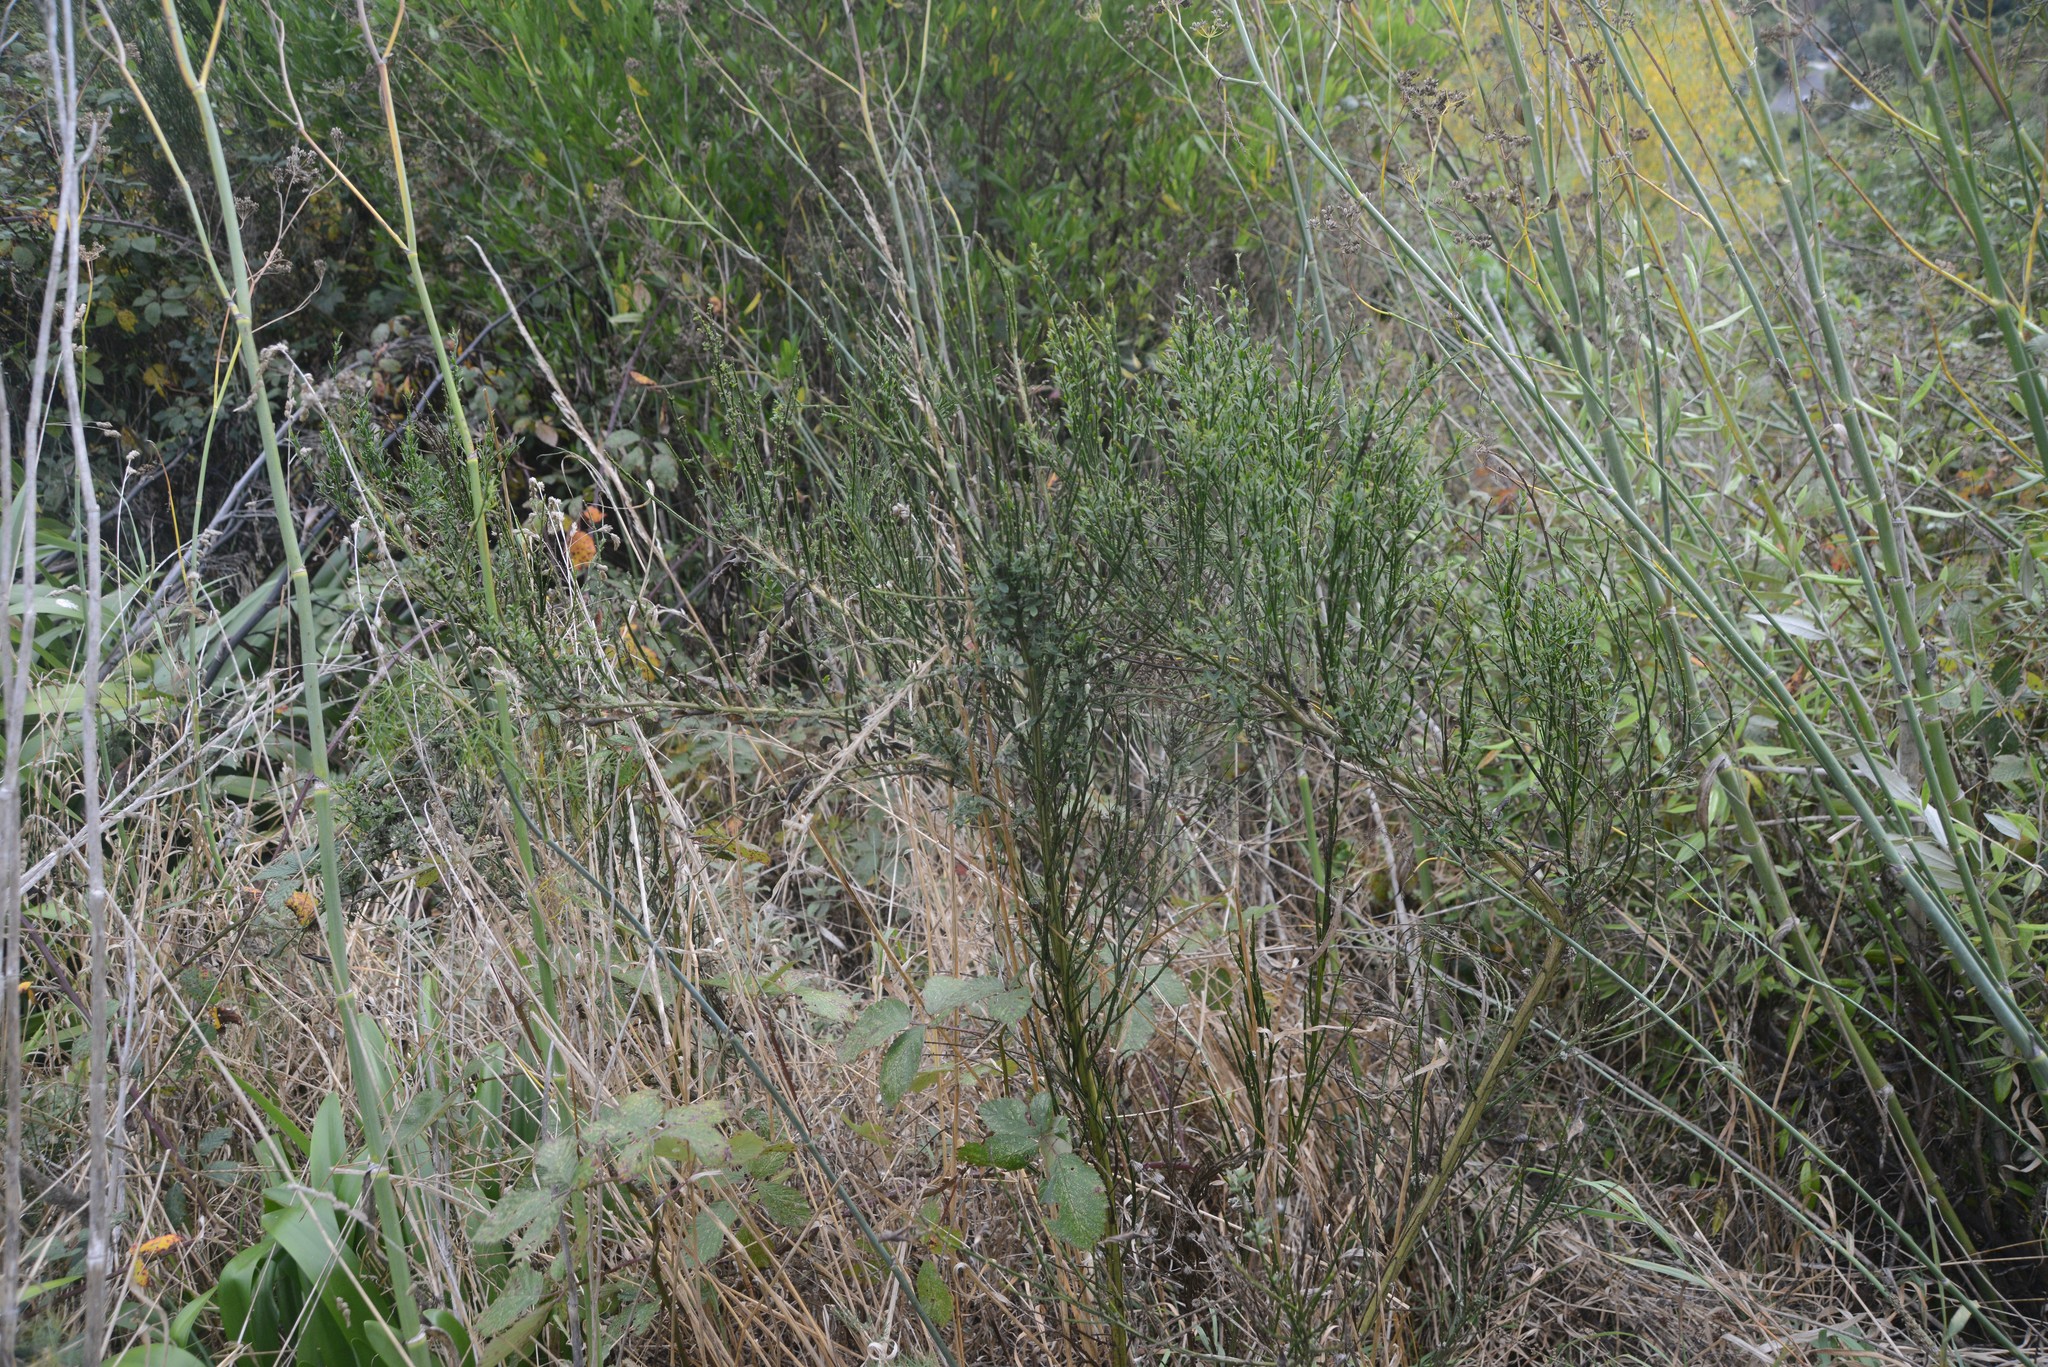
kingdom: Plantae
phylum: Tracheophyta
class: Magnoliopsida
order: Fabales
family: Fabaceae
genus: Cytisus
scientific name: Cytisus scoparius
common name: Scotch broom
